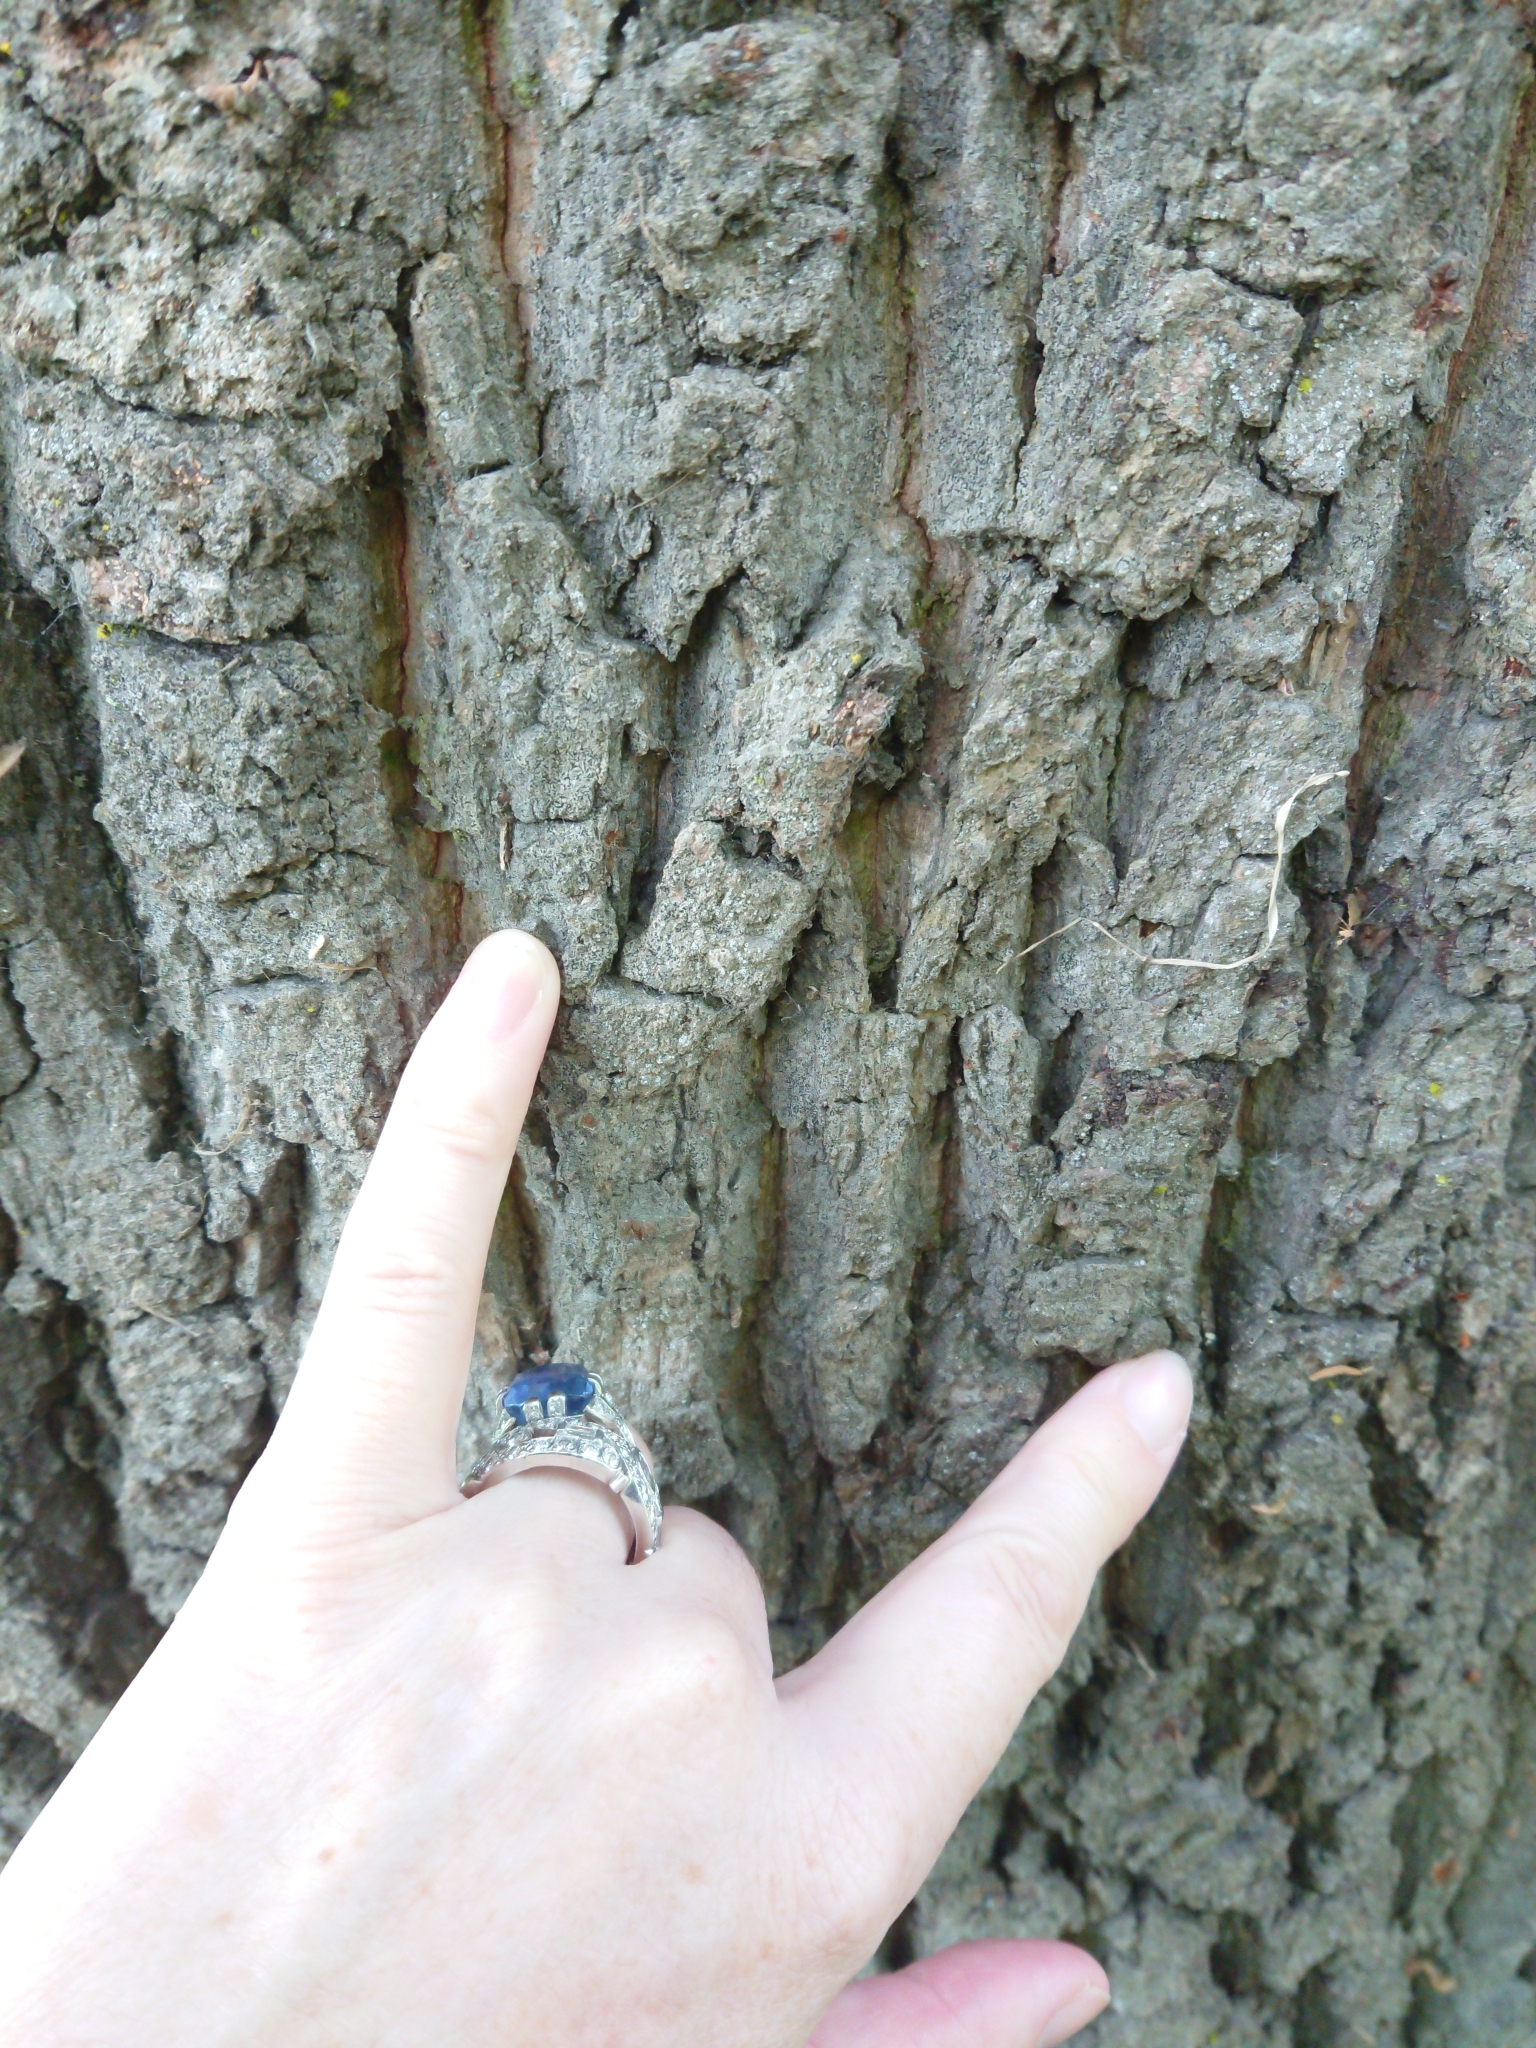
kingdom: Animalia
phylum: Arthropoda
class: Insecta
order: Lepidoptera
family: Tineidae
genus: Erechthias
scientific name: Erechthias fulguritella
